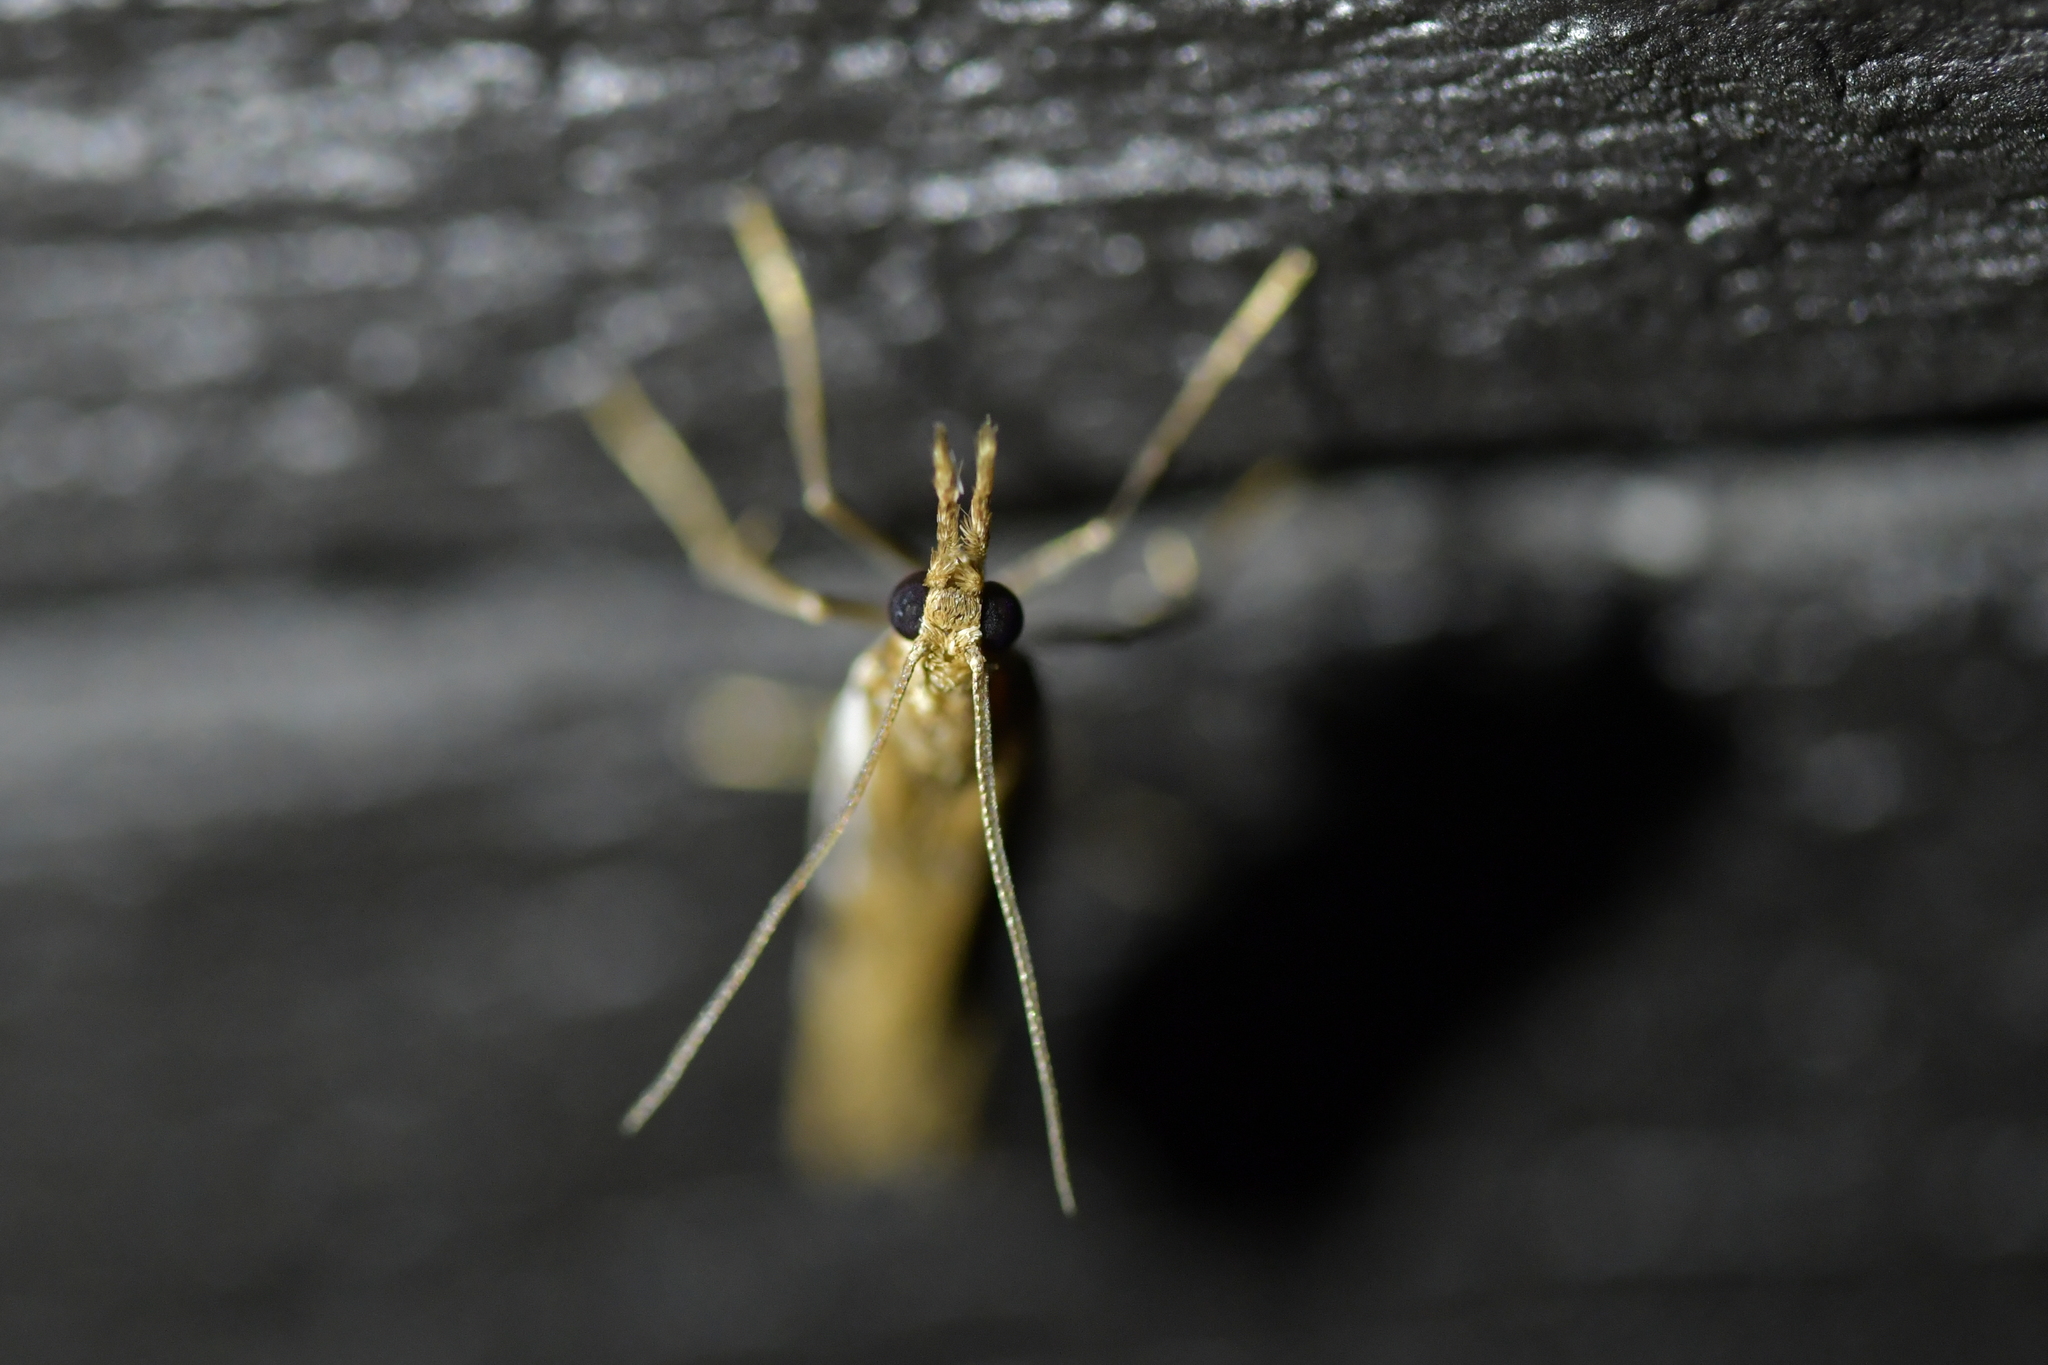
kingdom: Animalia
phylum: Arthropoda
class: Insecta
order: Lepidoptera
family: Crambidae
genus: Orocrambus
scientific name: Orocrambus vulgaris
